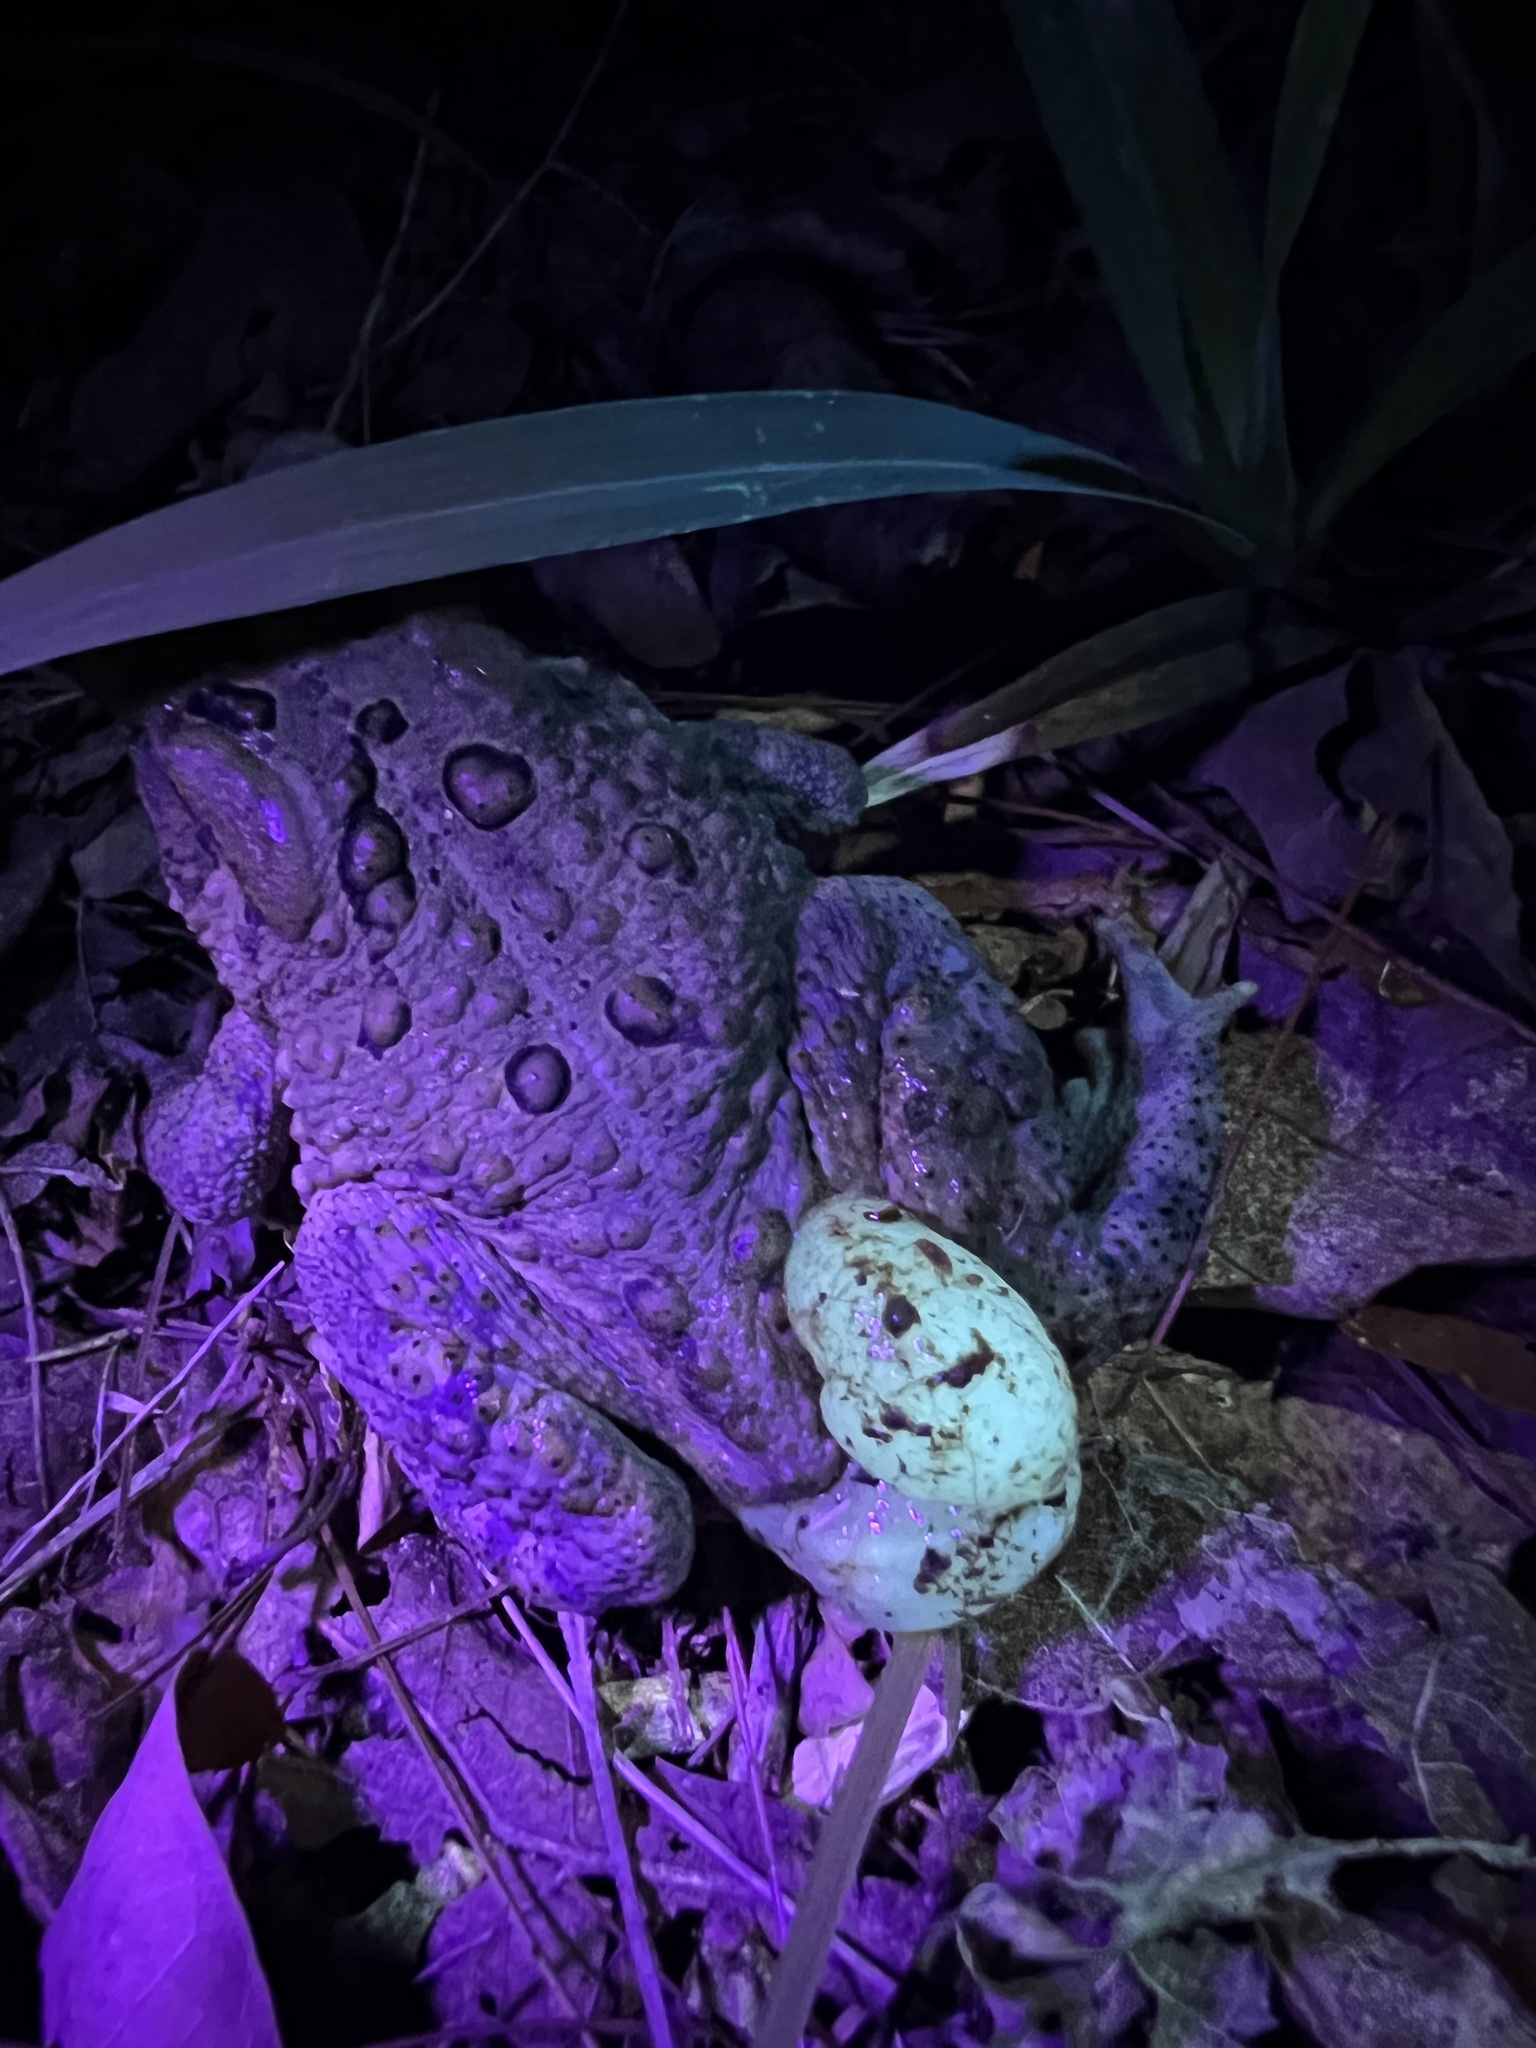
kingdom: Animalia
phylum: Chordata
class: Amphibia
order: Anura
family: Bufonidae
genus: Anaxyrus
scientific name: Anaxyrus americanus
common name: American toad
